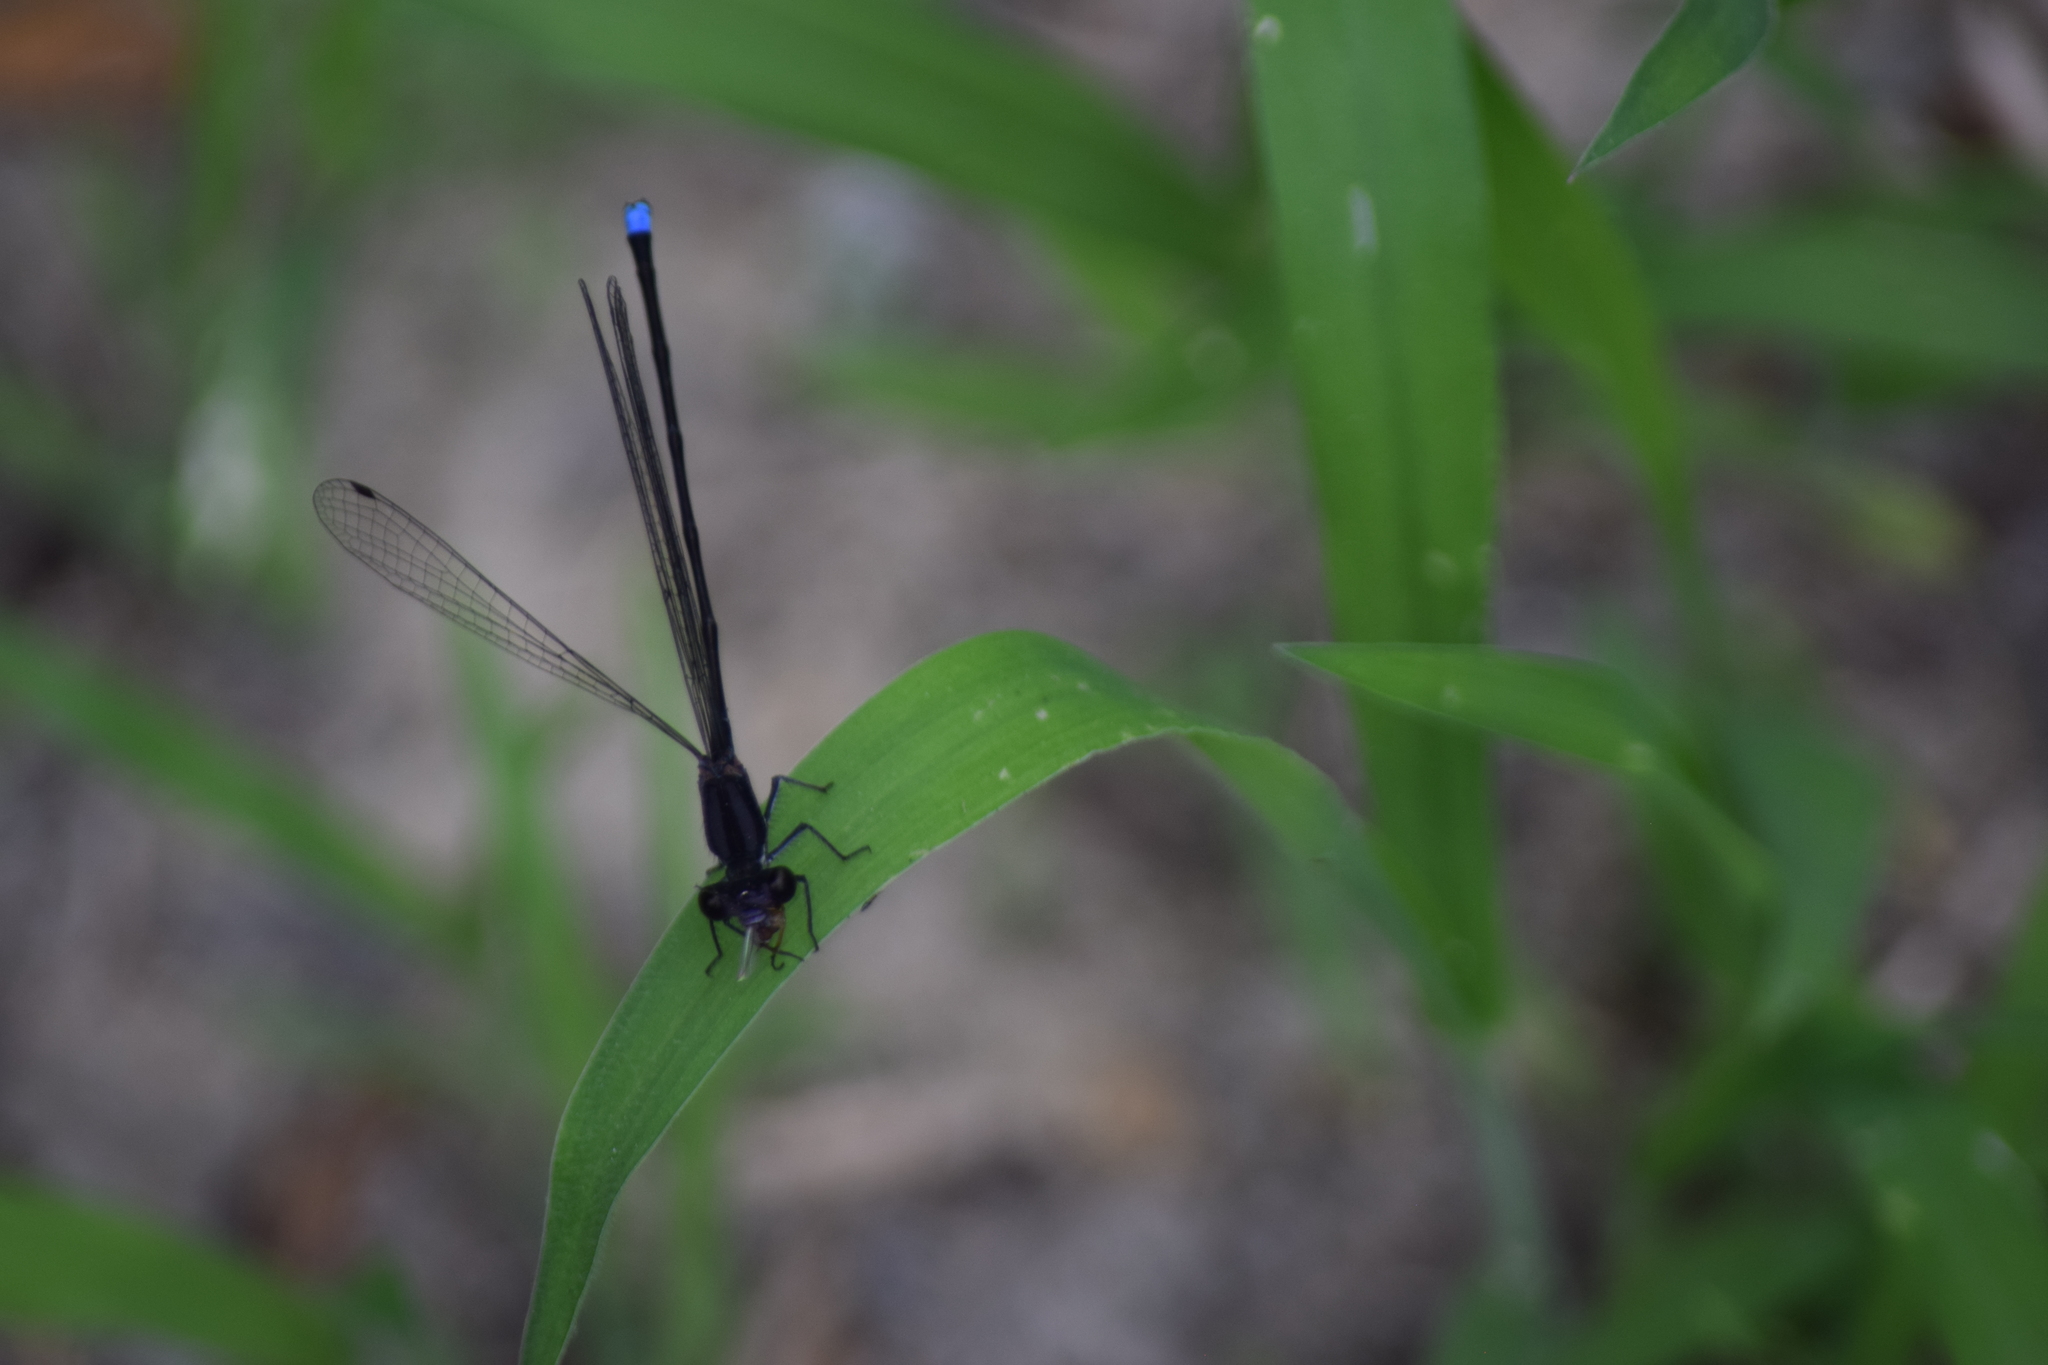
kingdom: Animalia
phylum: Arthropoda
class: Insecta
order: Odonata
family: Coenagrionidae
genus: Argia
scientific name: Argia tibialis
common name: Blue-tipped dancer
